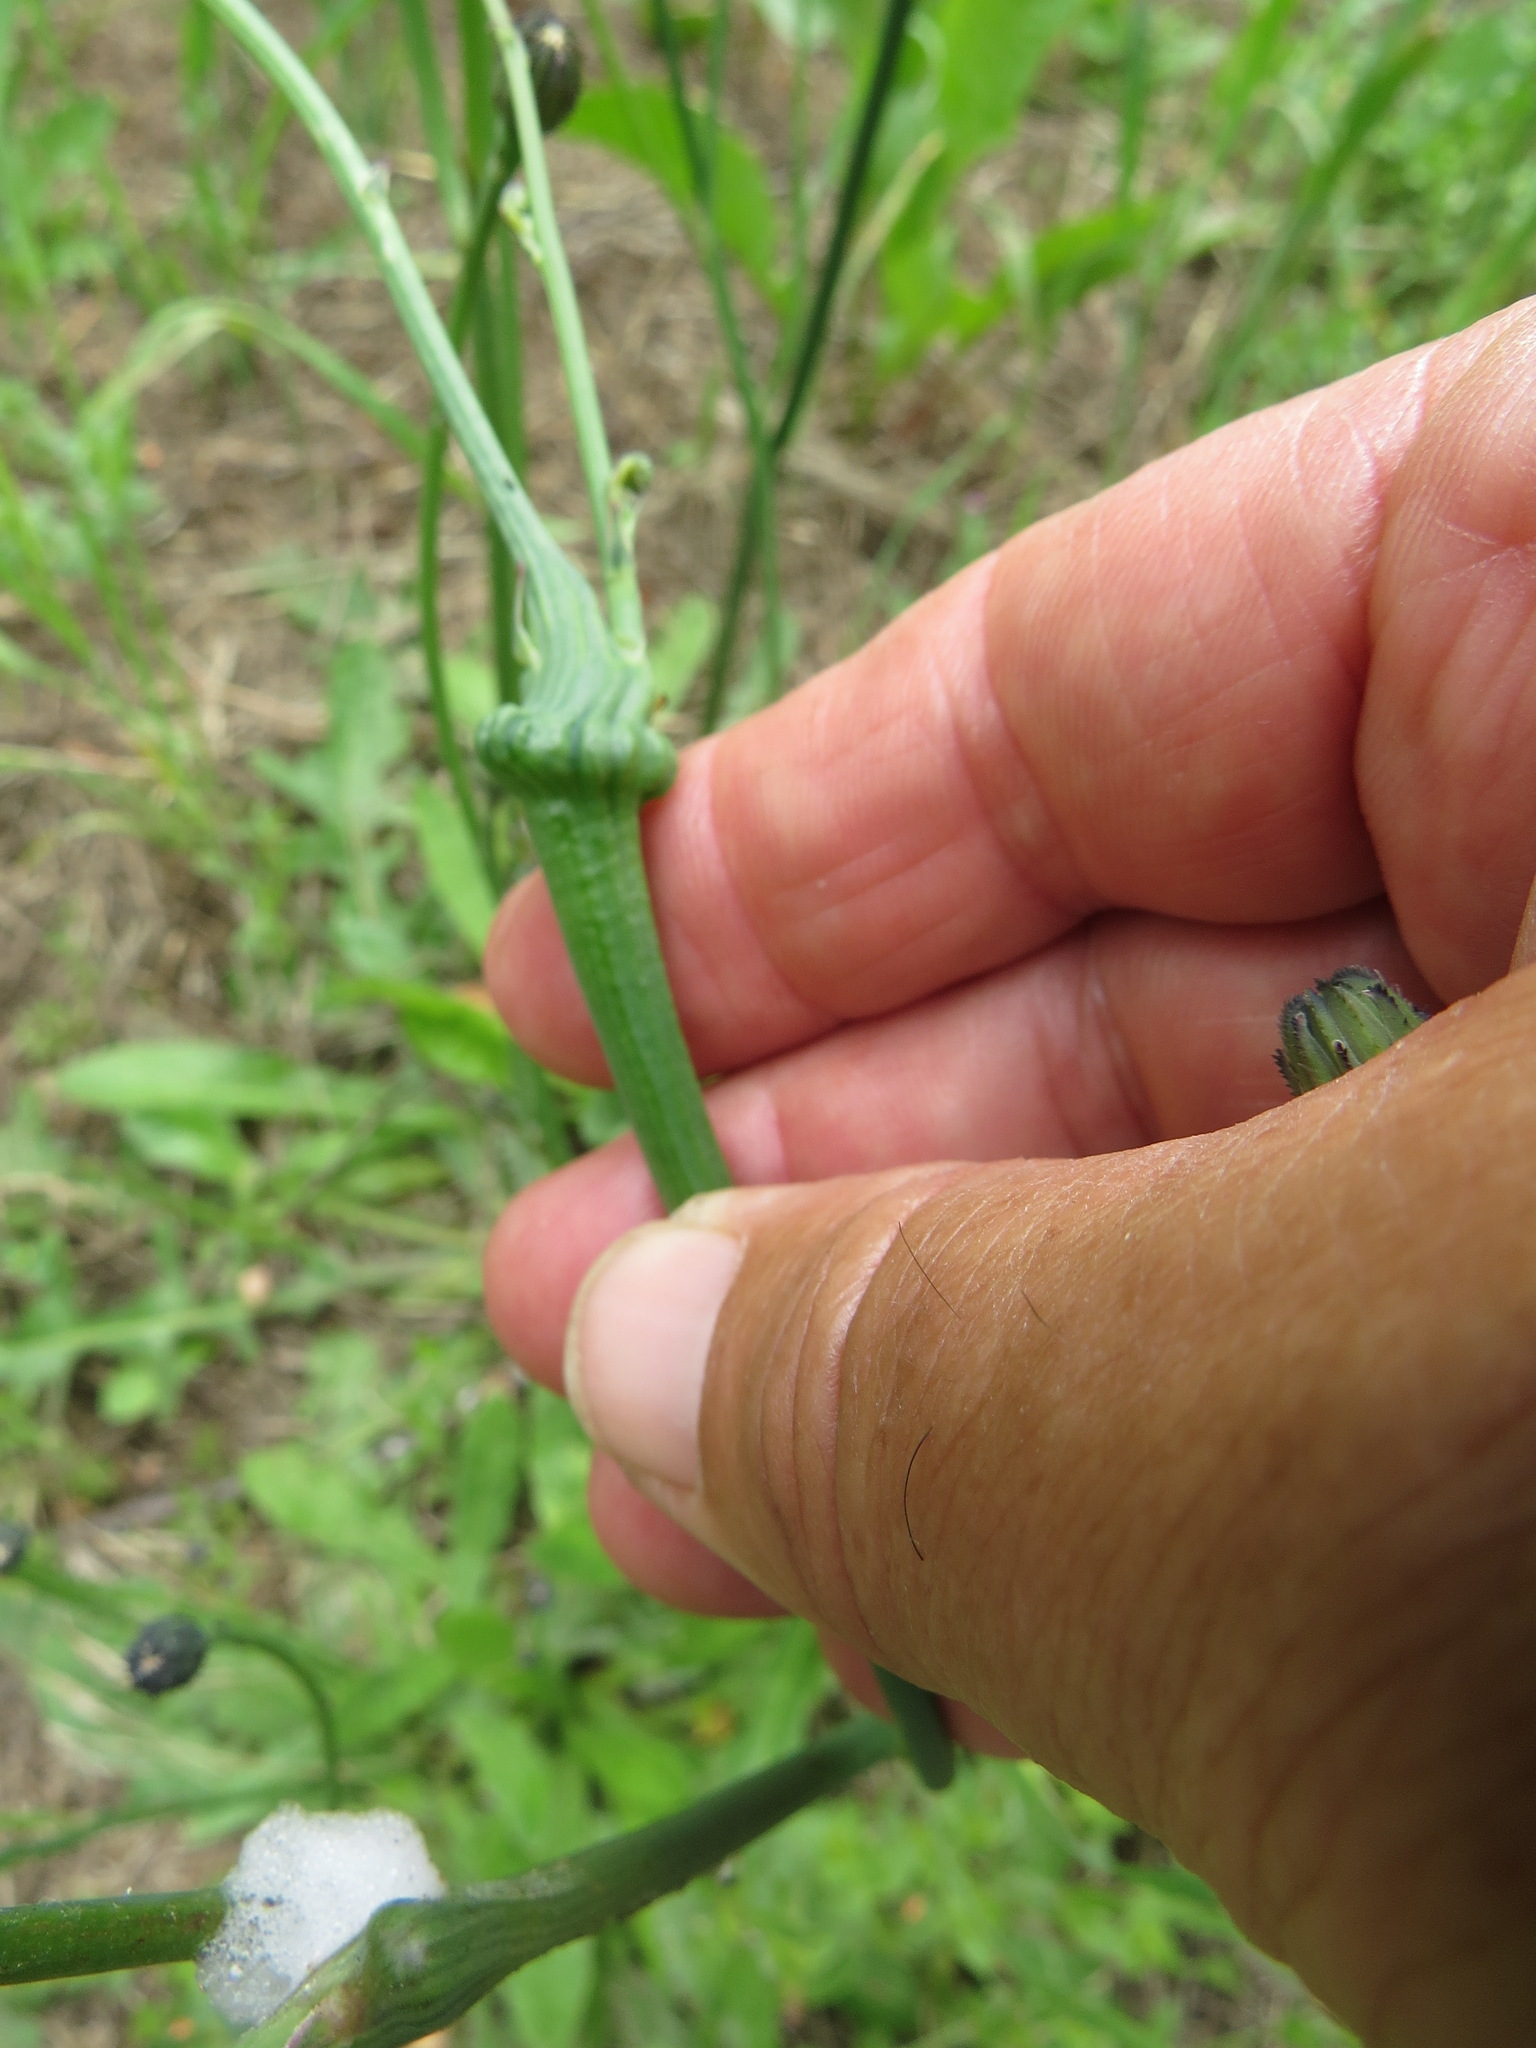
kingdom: Animalia
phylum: Arthropoda
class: Insecta
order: Hymenoptera
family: Cynipidae
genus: Phanacis
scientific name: Phanacis hypochoeridis
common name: Gall wasp
